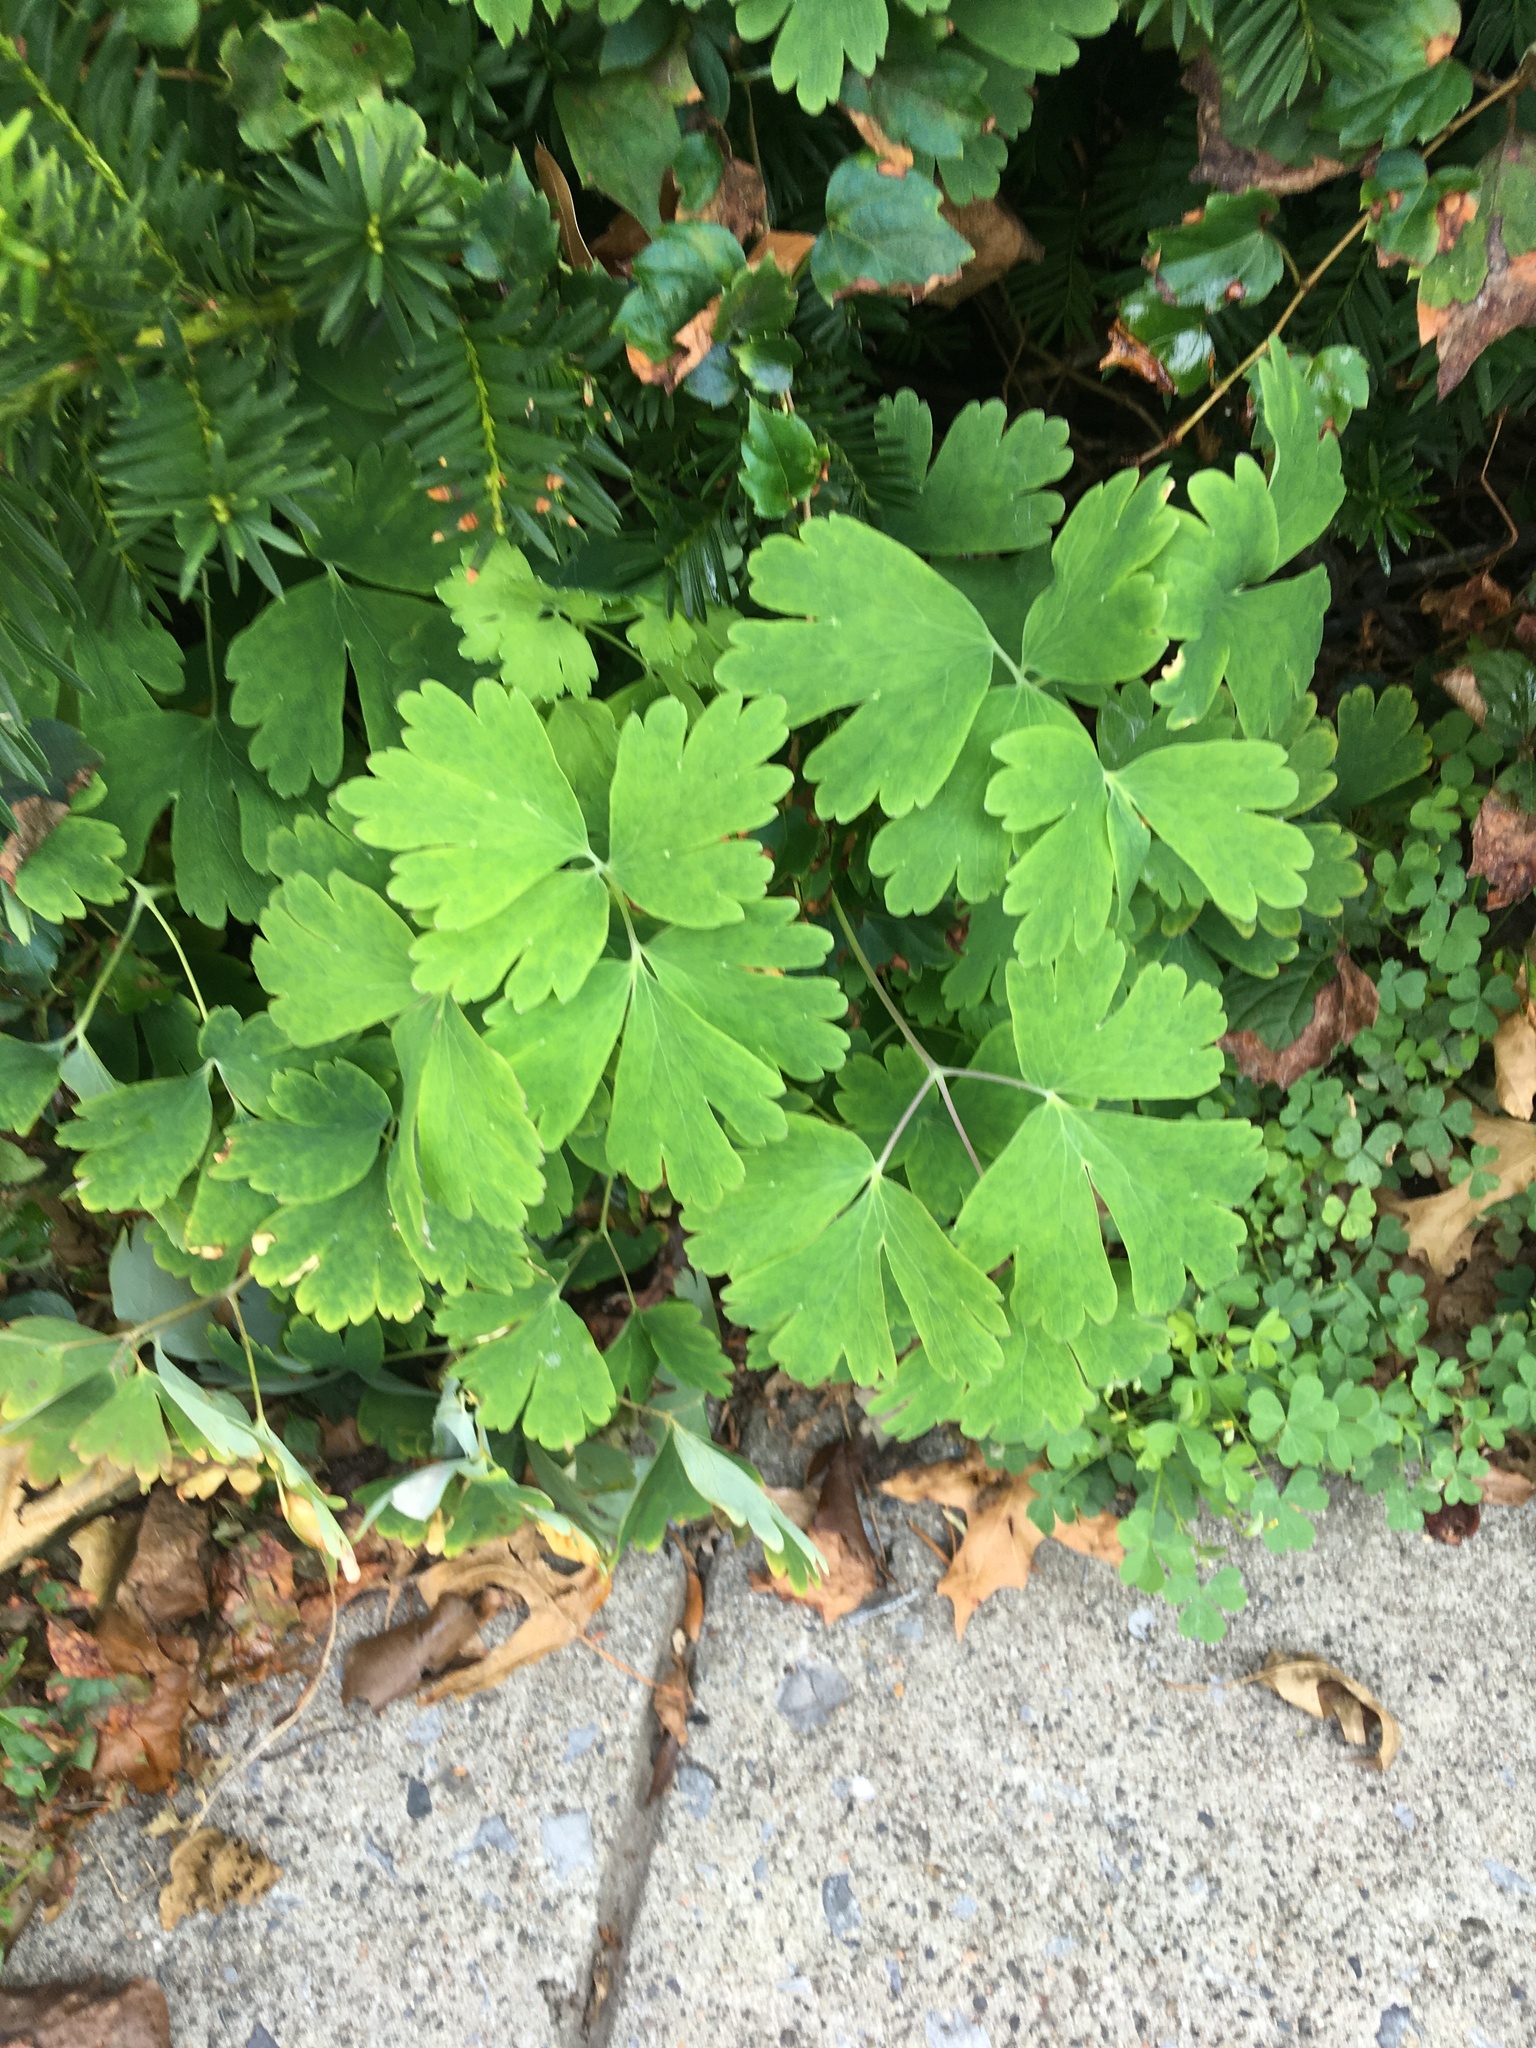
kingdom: Plantae
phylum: Tracheophyta
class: Magnoliopsida
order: Ranunculales
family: Ranunculaceae
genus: Aquilegia
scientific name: Aquilegia canadensis
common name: American columbine
